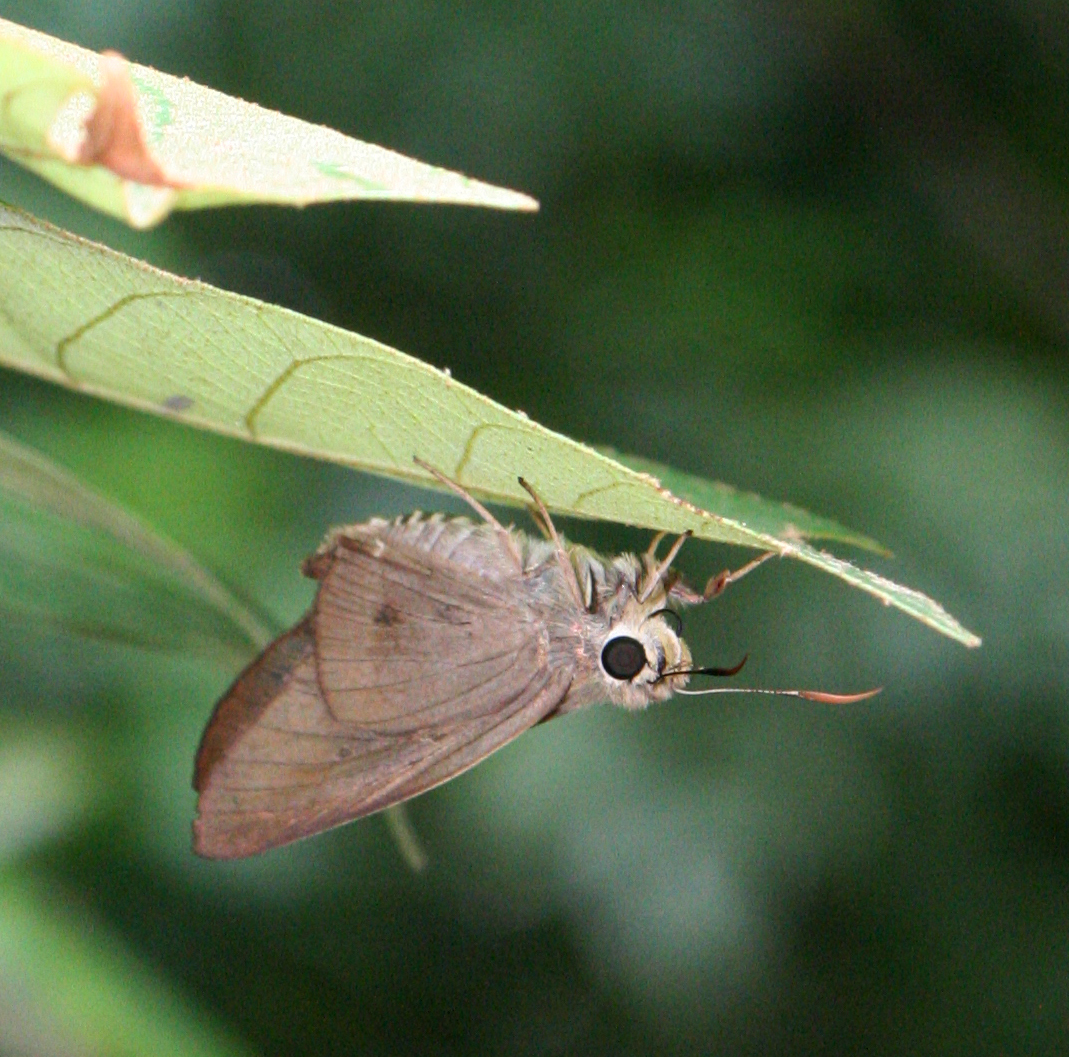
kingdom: Animalia
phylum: Arthropoda
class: Insecta
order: Lepidoptera
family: Hesperiidae
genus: Badamia
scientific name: Badamia exclamationis
